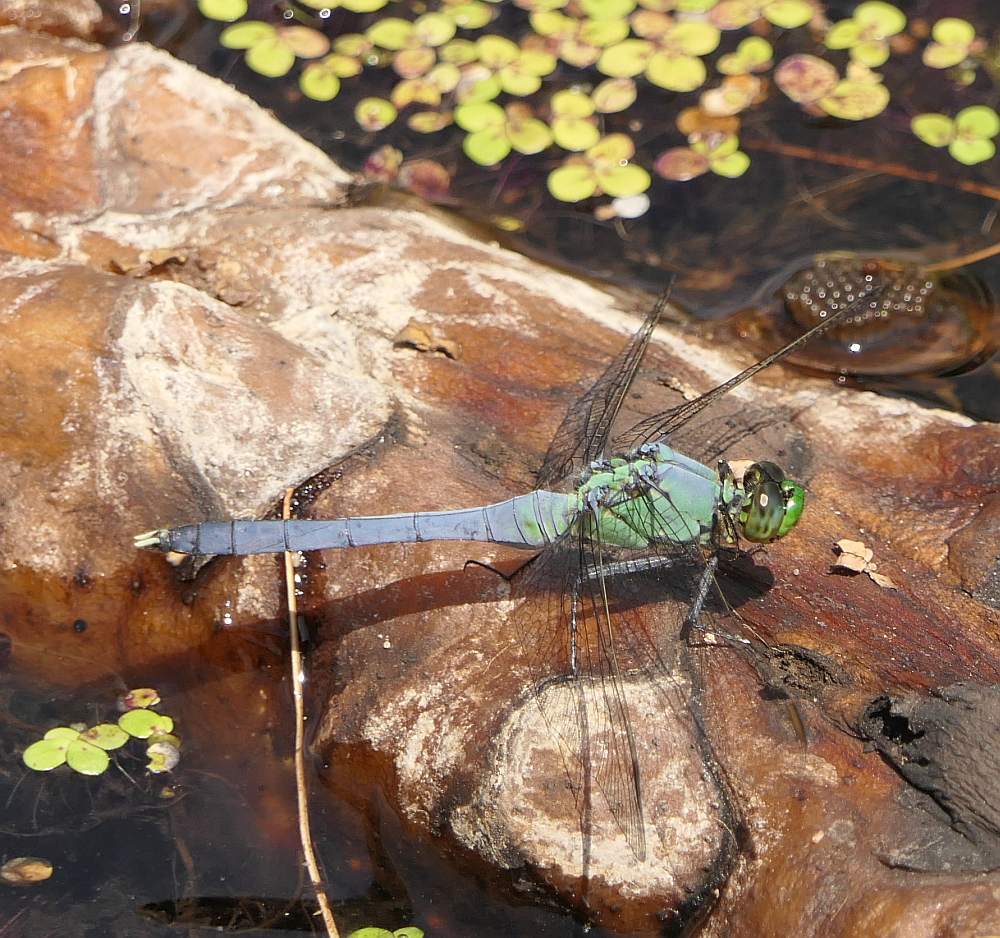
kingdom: Animalia
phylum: Arthropoda
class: Insecta
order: Odonata
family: Libellulidae
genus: Erythemis
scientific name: Erythemis simplicicollis
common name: Eastern pondhawk
